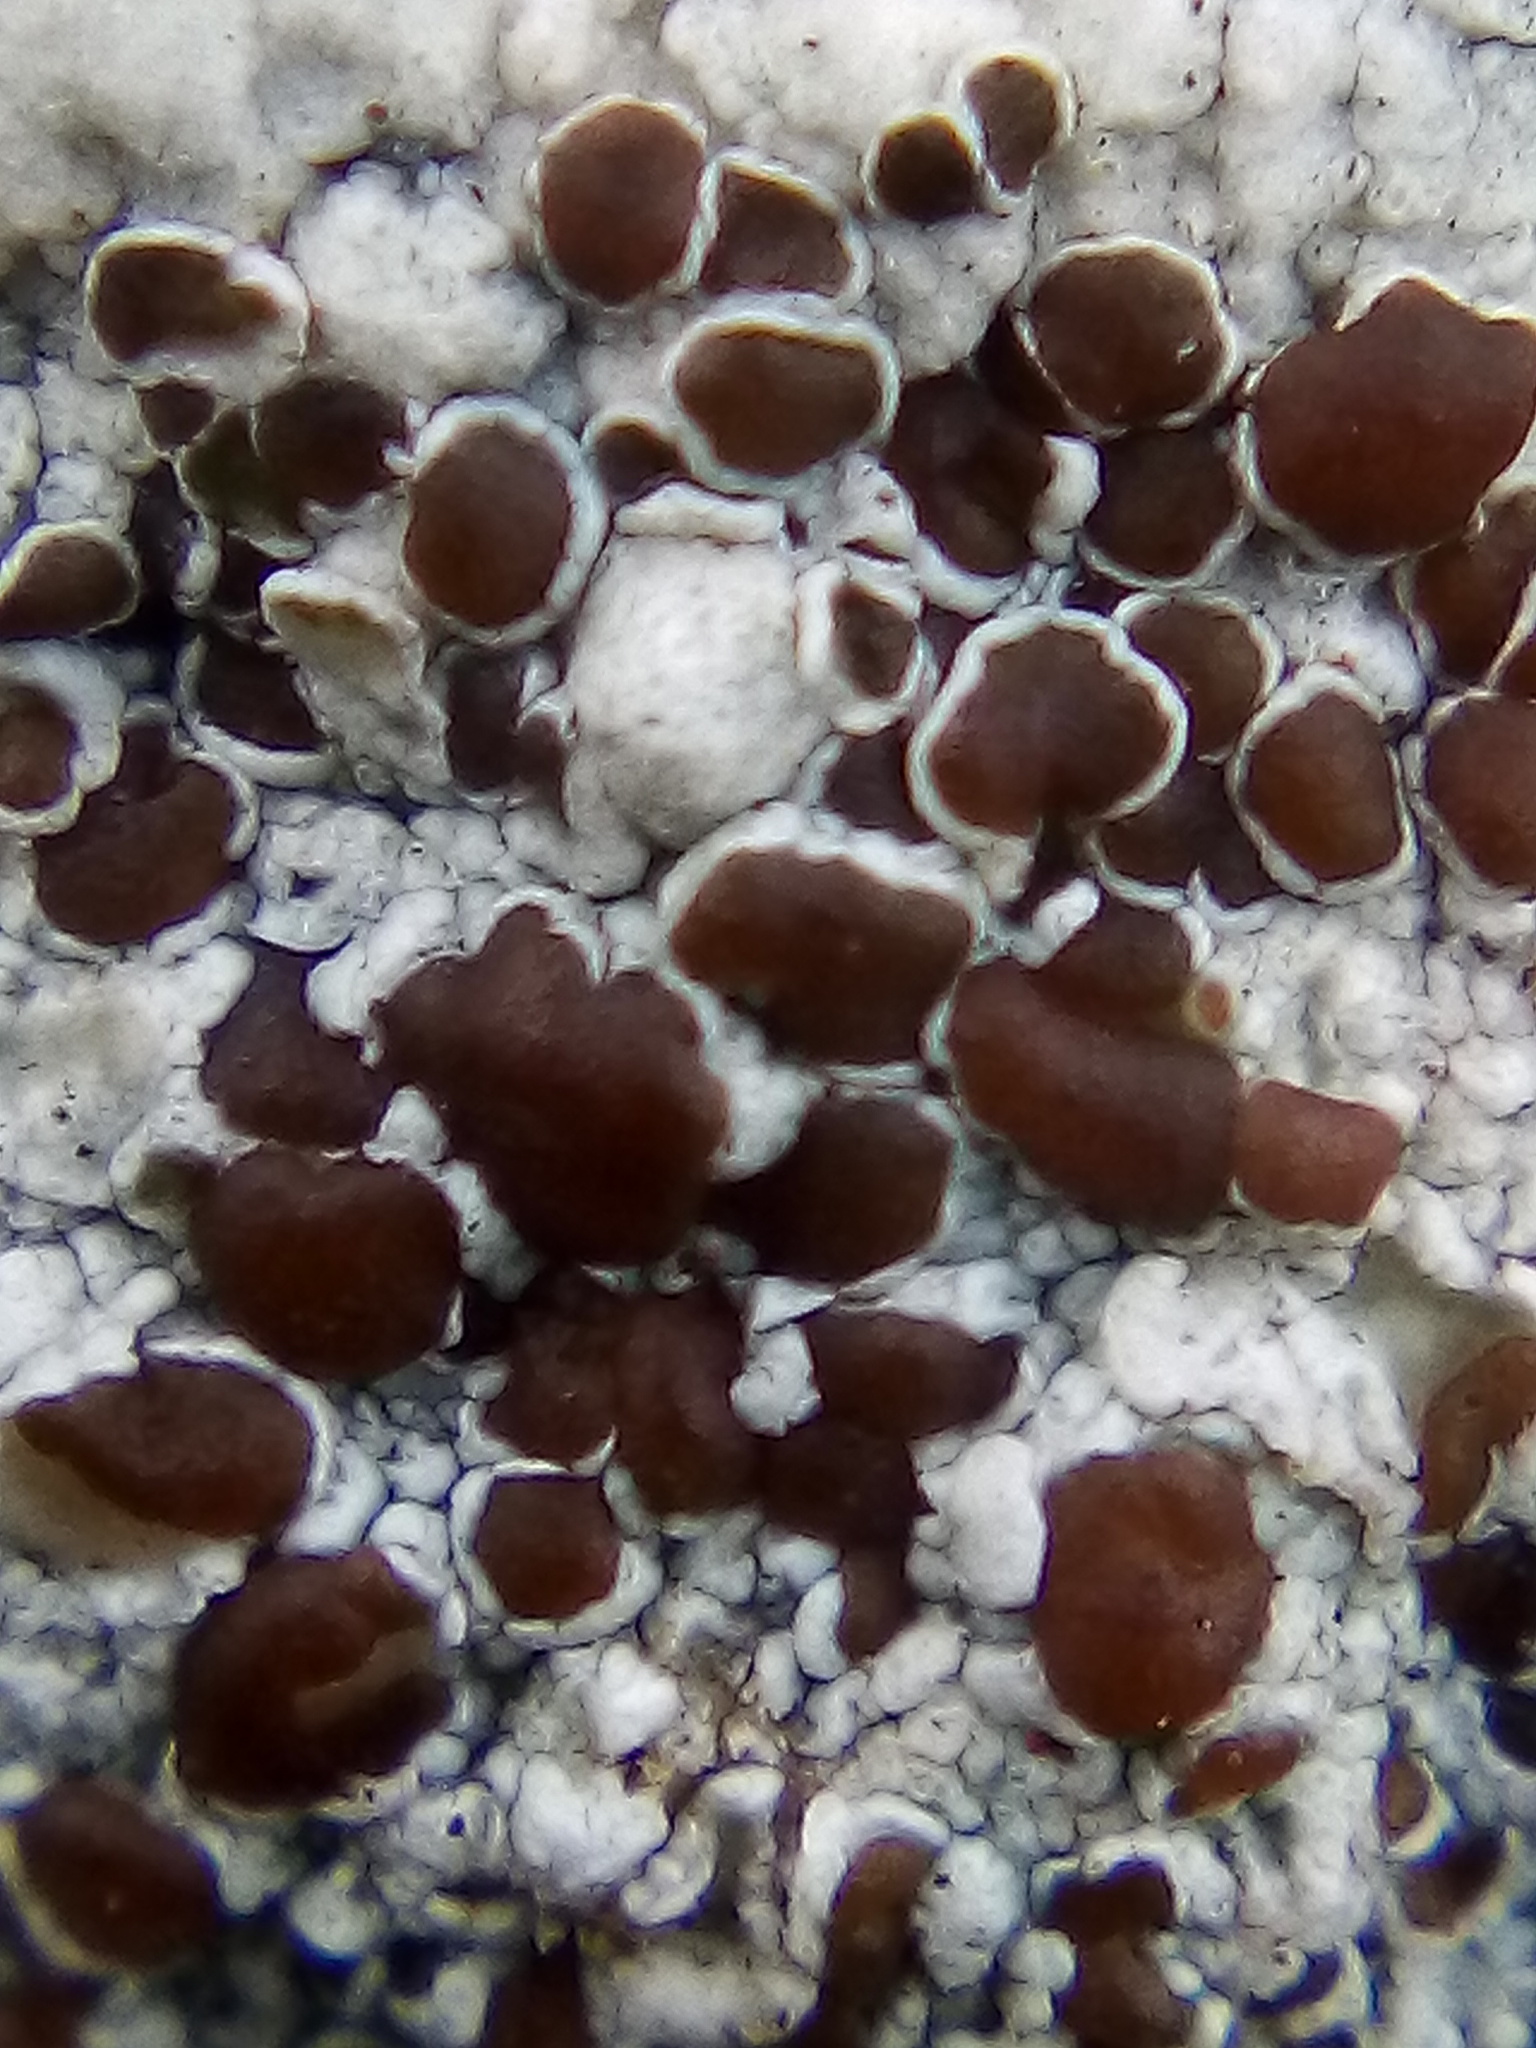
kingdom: Fungi
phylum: Ascomycota
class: Lecanoromycetes
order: Lecanorales
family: Lecanoraceae
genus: Lecanora
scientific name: Lecanora galactiniza
